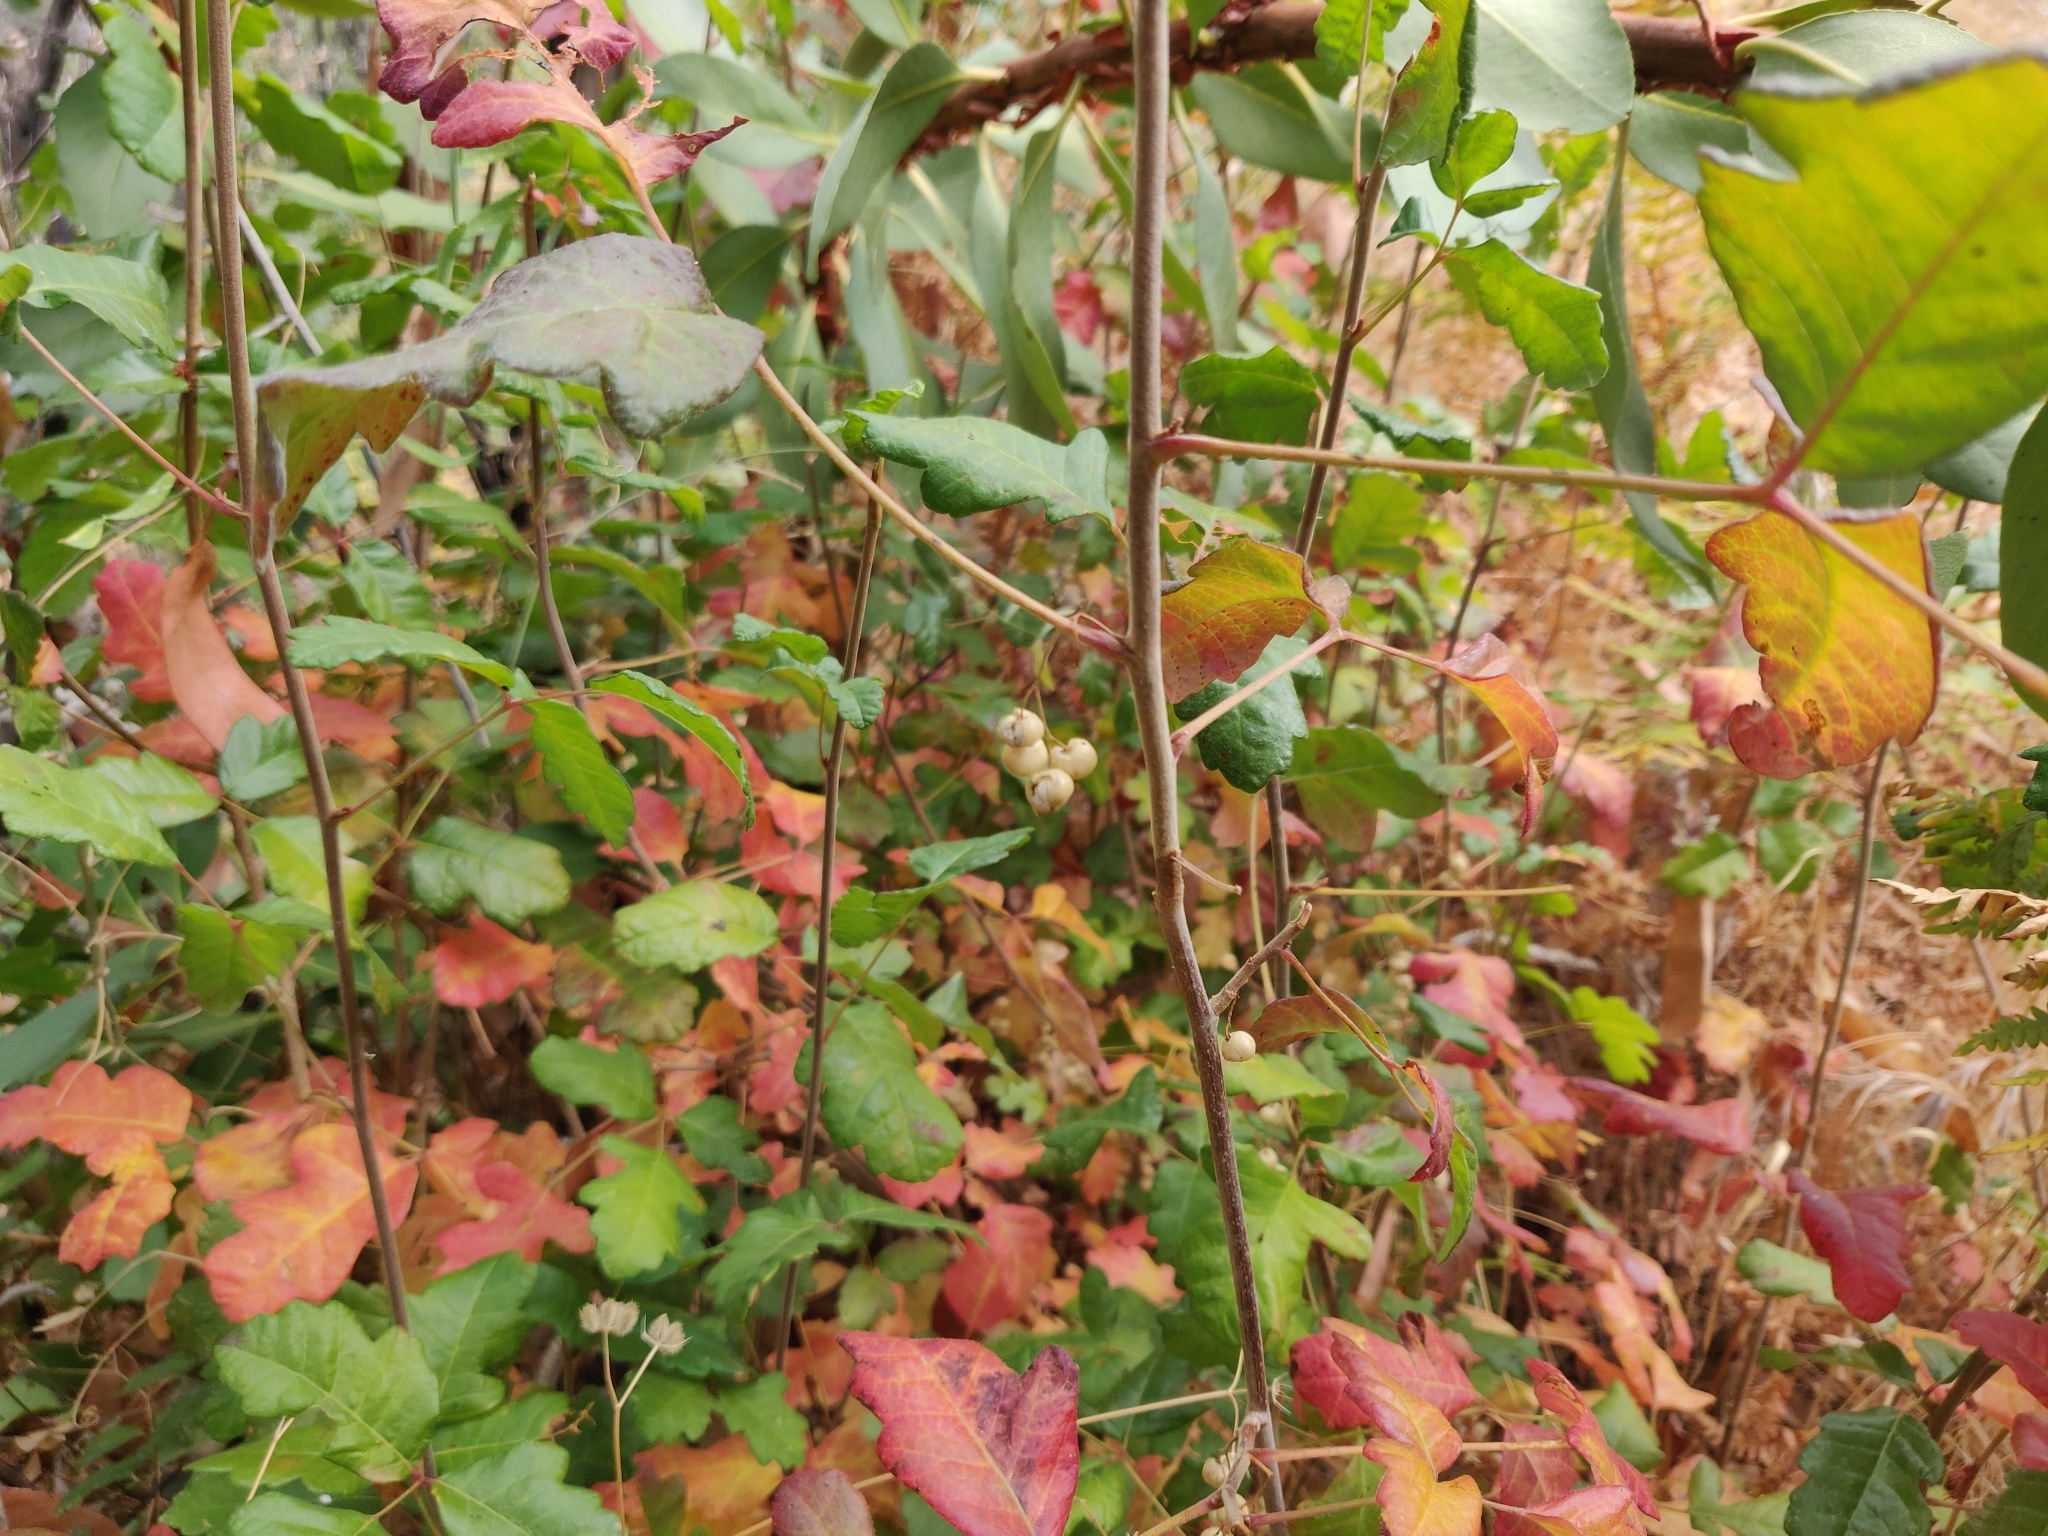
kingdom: Plantae
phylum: Tracheophyta
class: Magnoliopsida
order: Sapindales
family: Anacardiaceae
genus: Toxicodendron
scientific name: Toxicodendron diversilobum
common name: Pacific poison-oak
